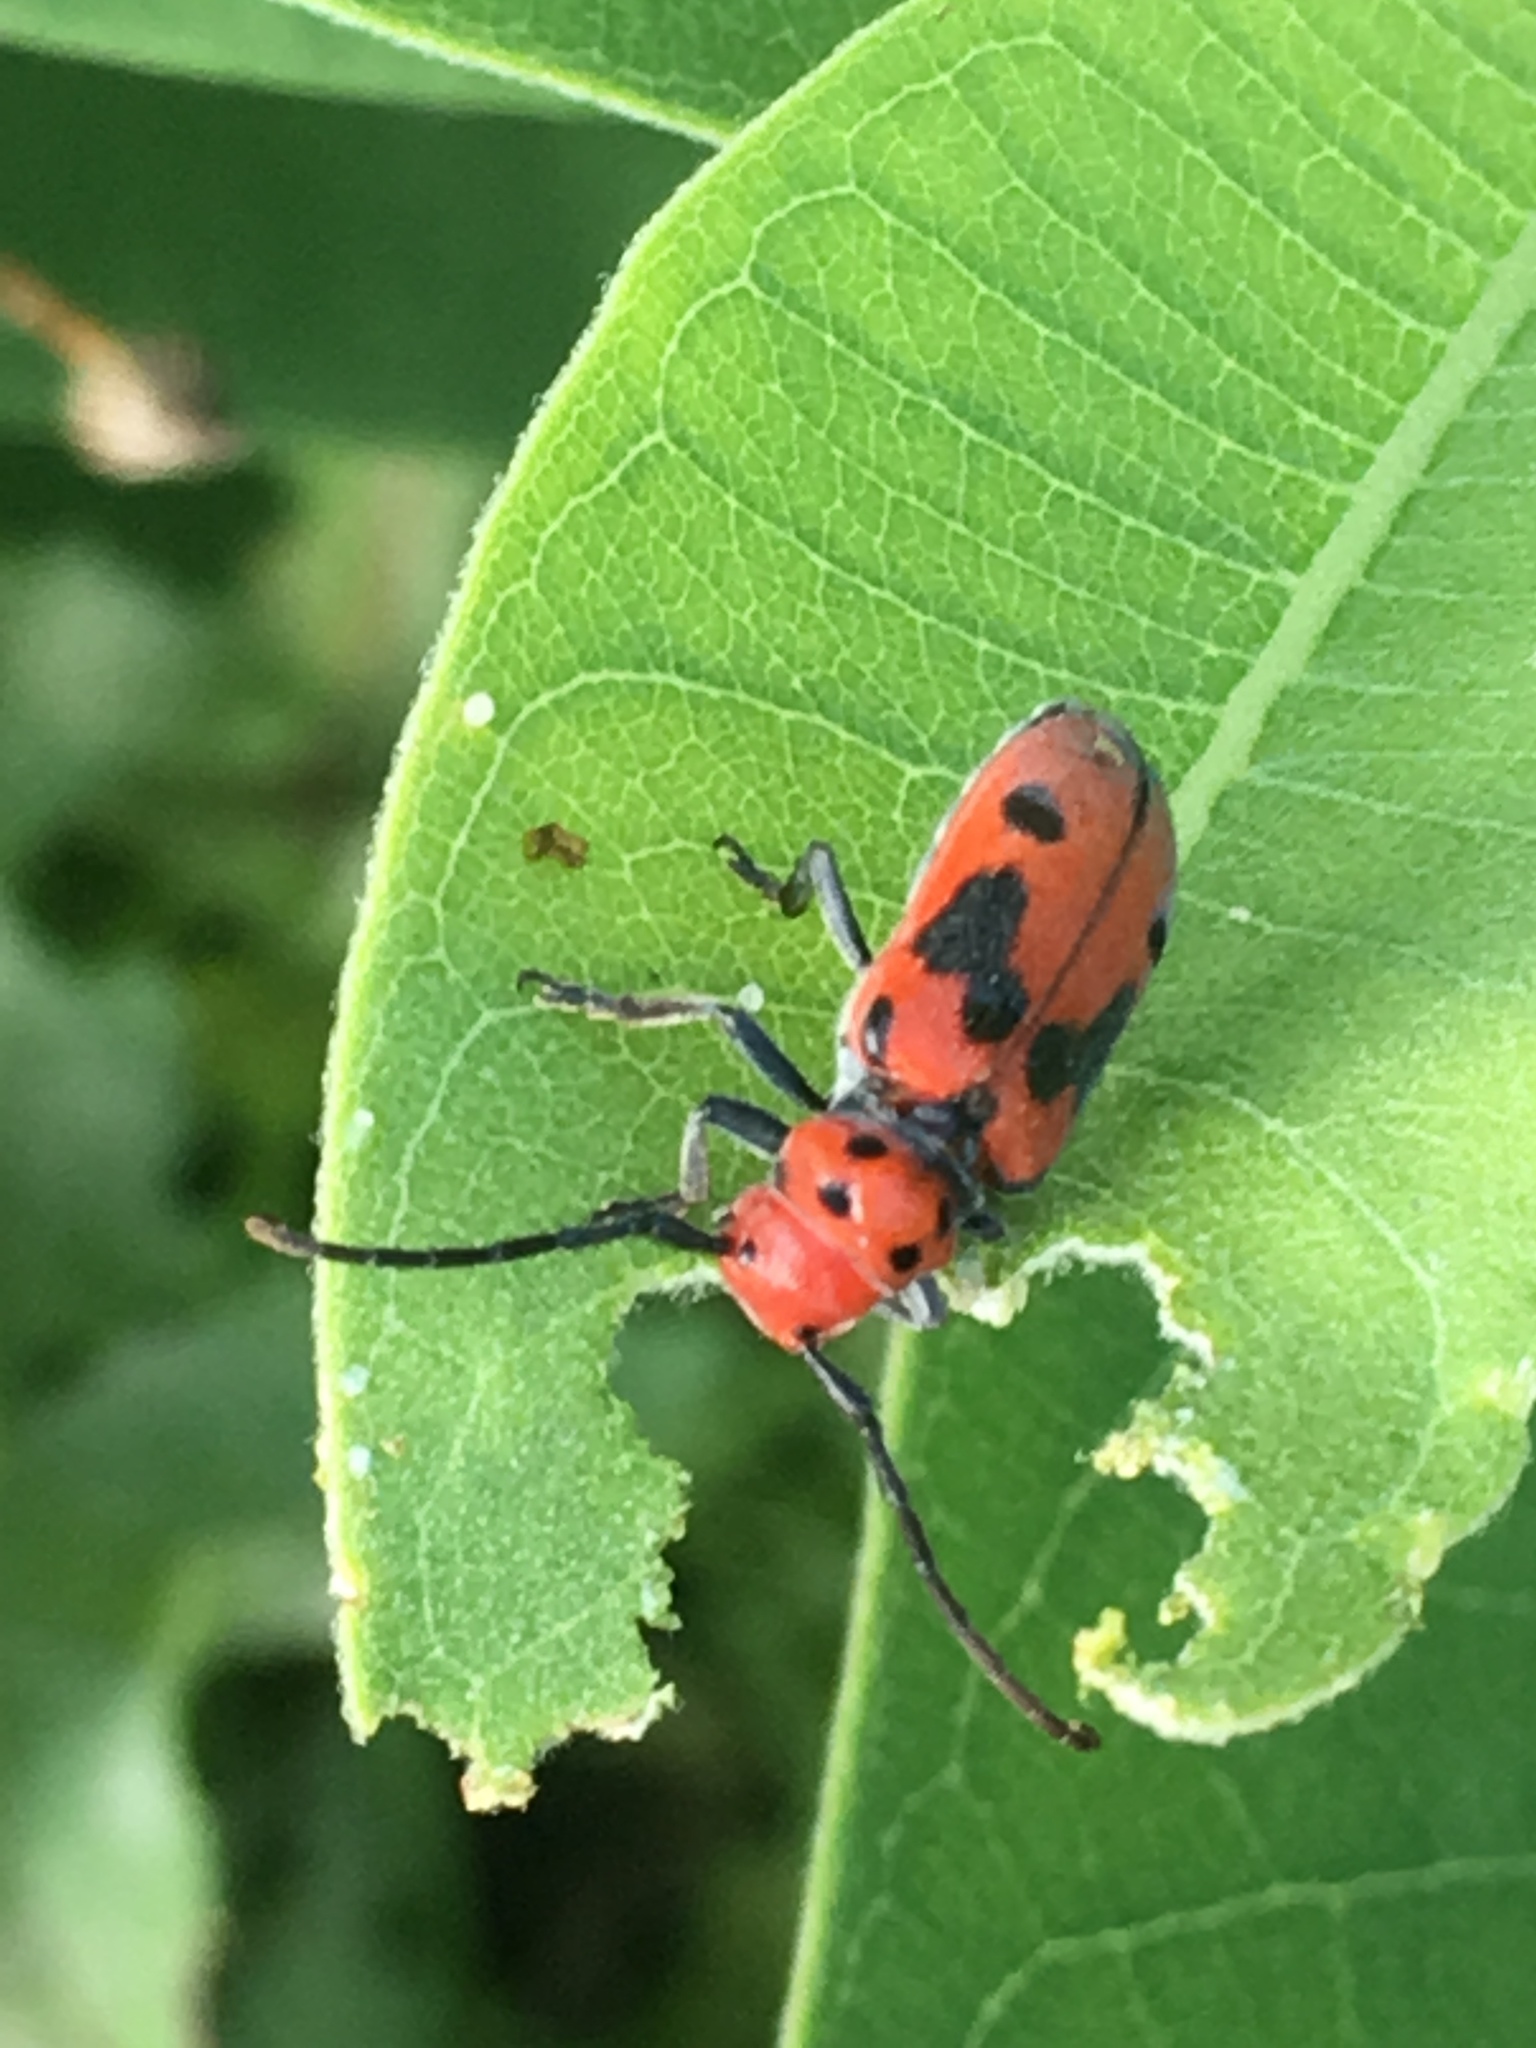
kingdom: Animalia
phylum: Arthropoda
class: Insecta
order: Coleoptera
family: Cerambycidae
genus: Tetraopes
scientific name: Tetraopes tetrophthalmus
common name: Red milkweed beetle
